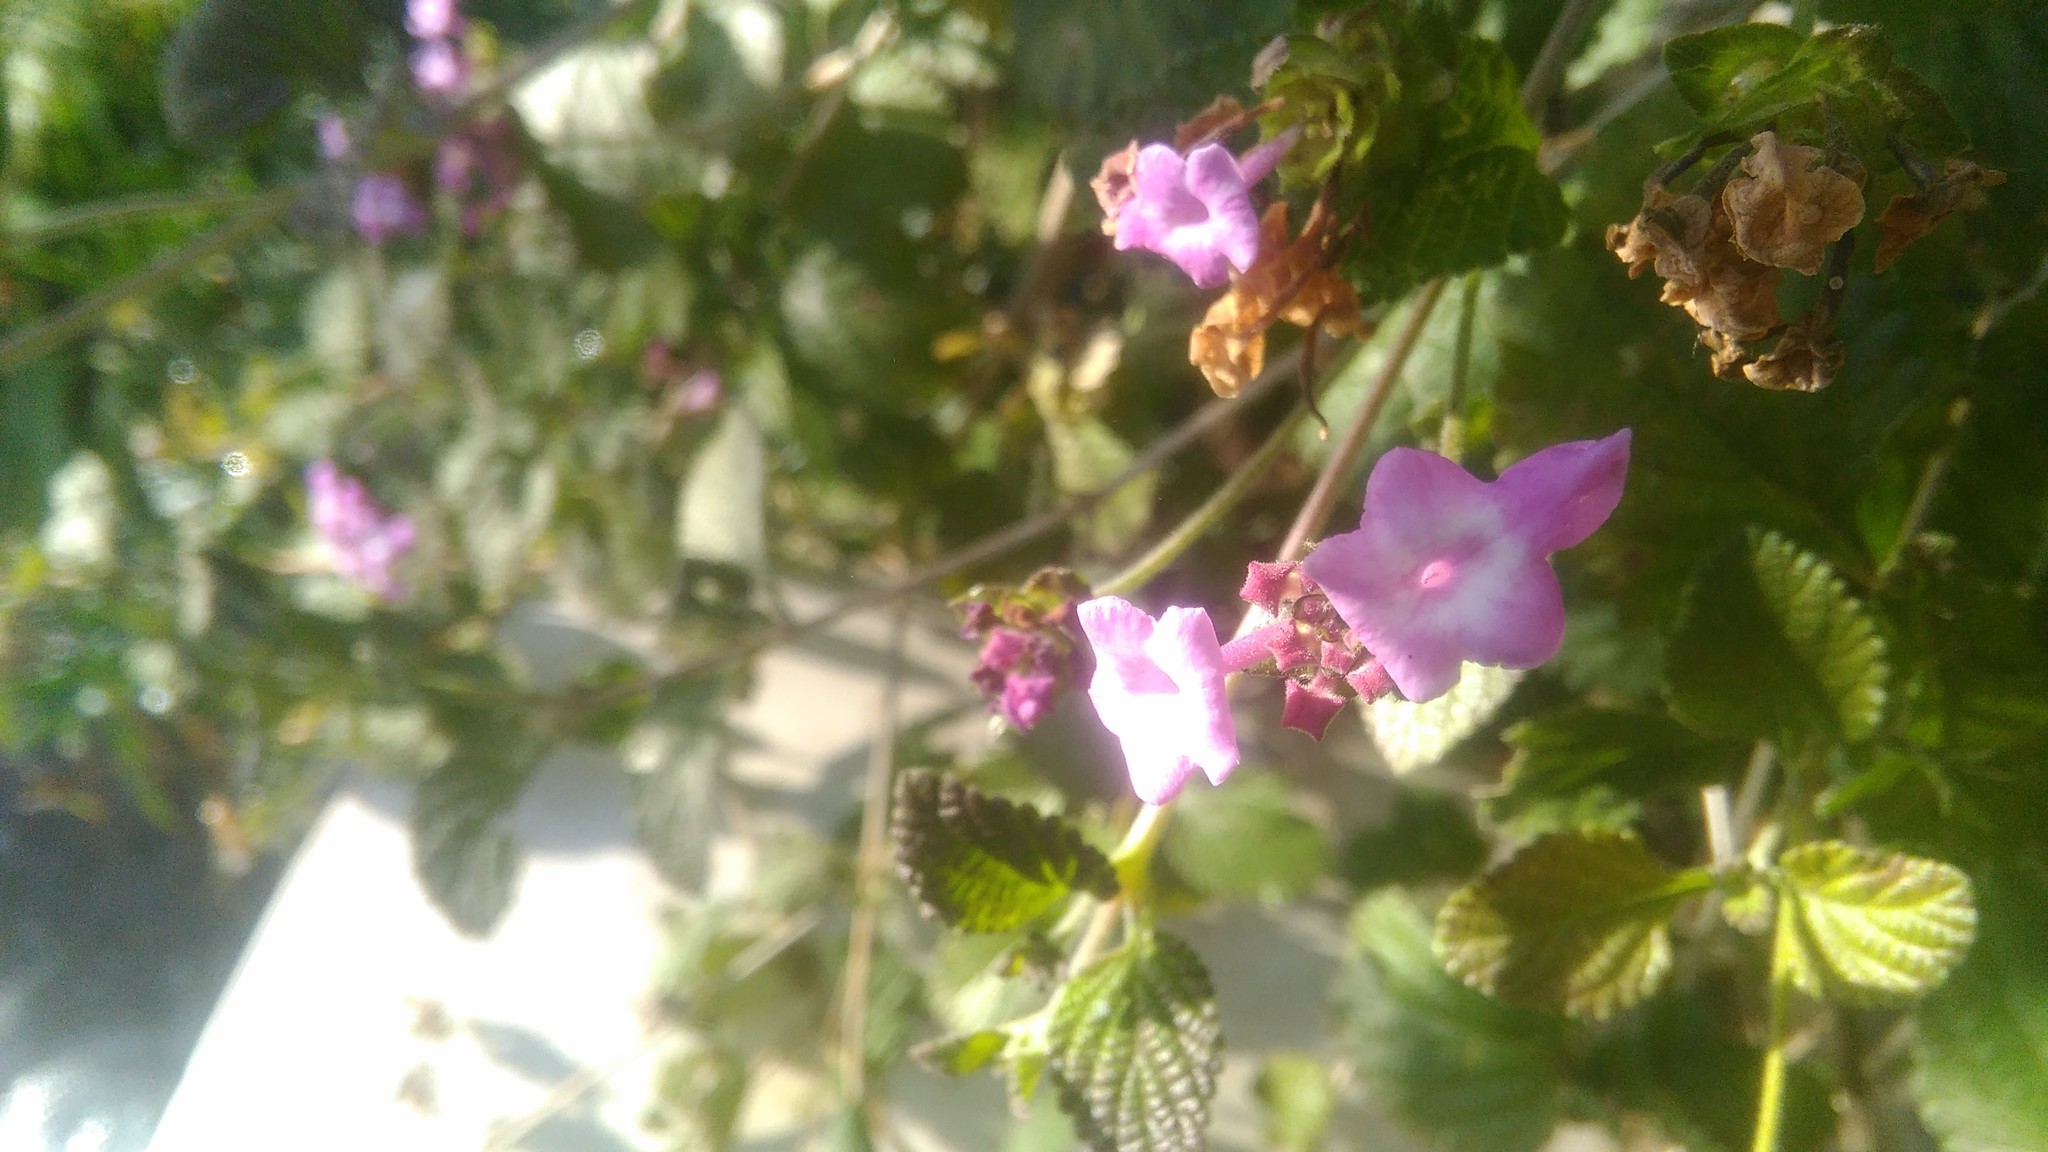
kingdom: Plantae
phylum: Tracheophyta
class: Magnoliopsida
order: Lamiales
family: Verbenaceae
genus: Lantana
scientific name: Lantana megapotamica
